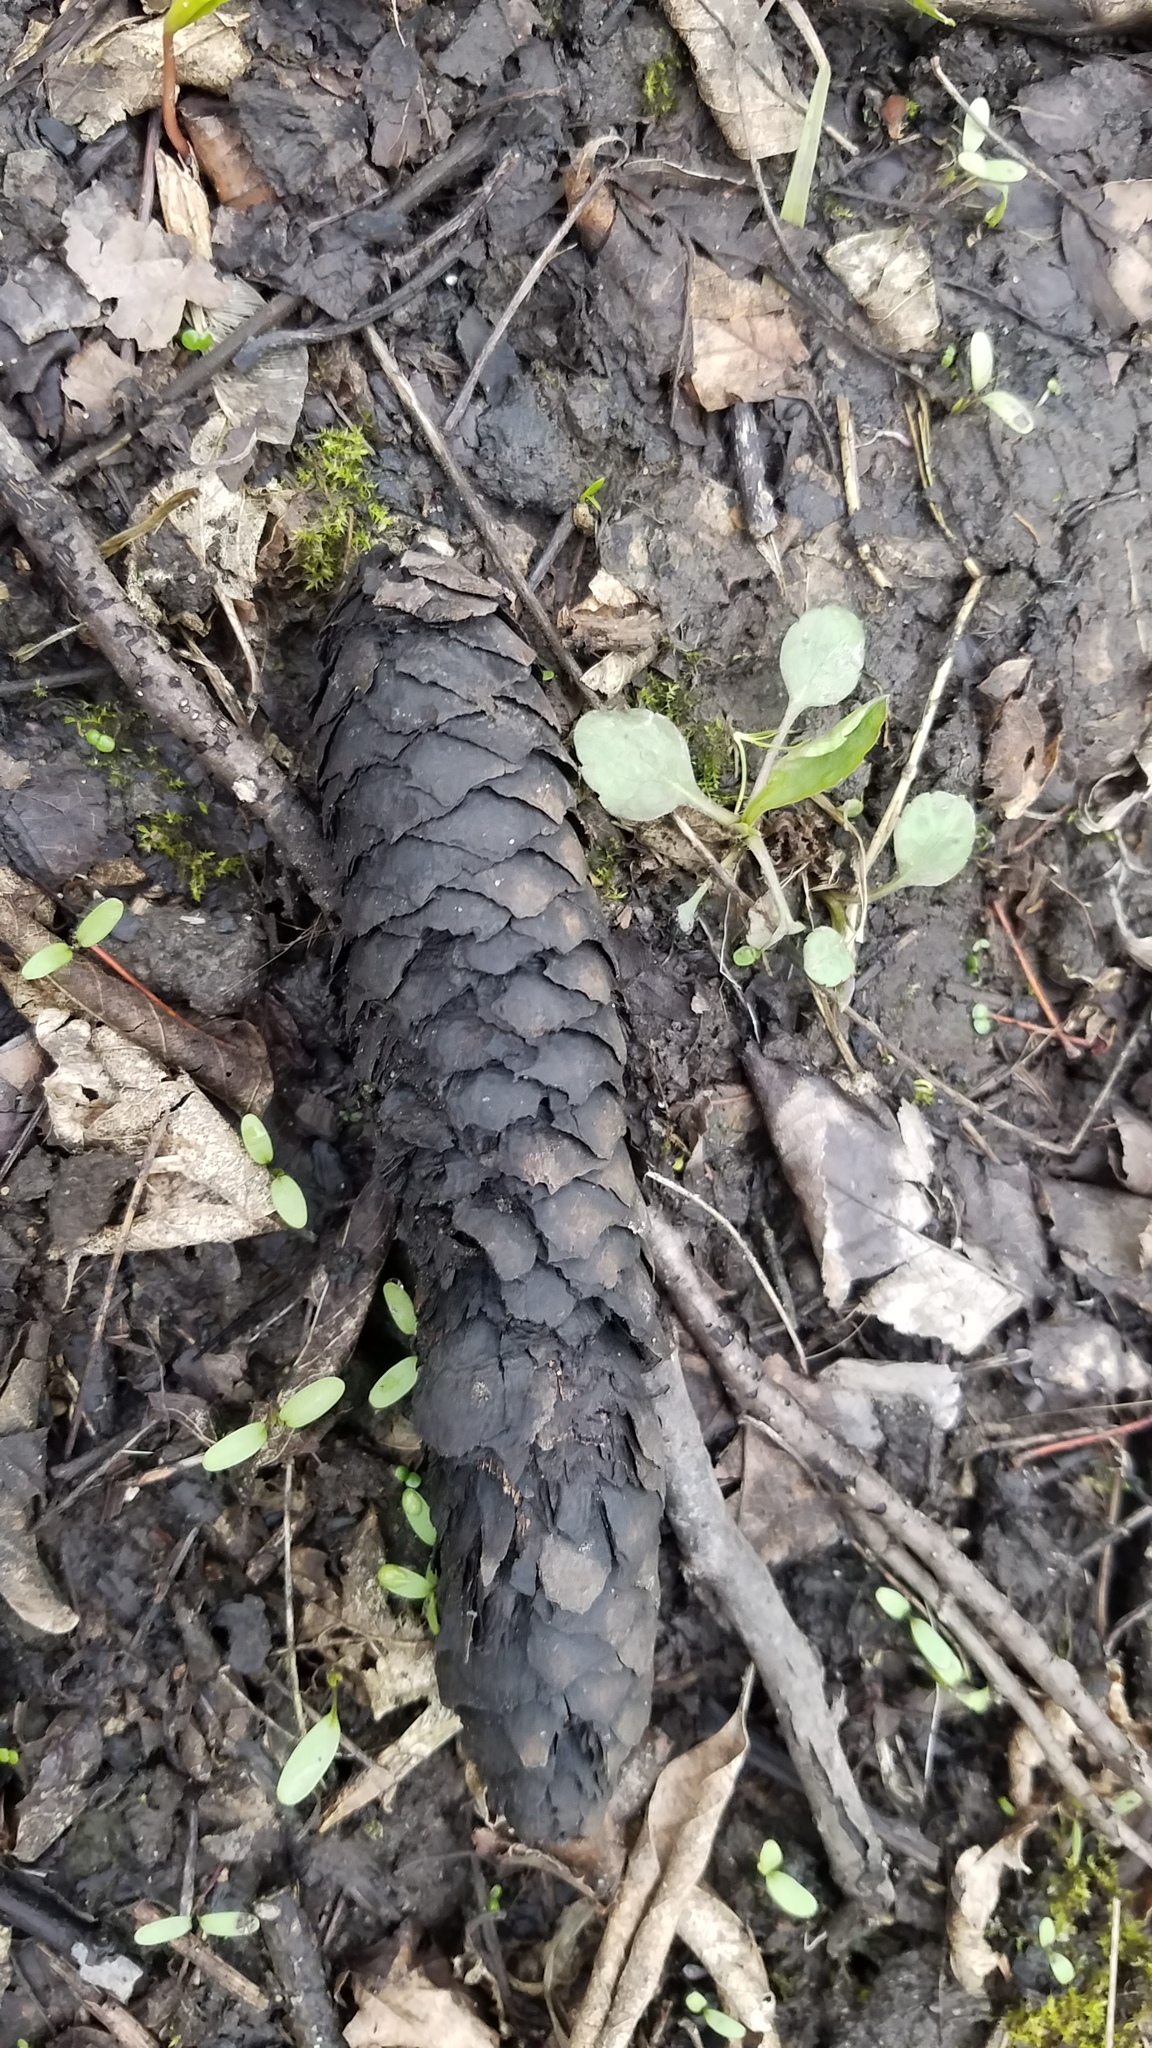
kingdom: Plantae
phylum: Tracheophyta
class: Pinopsida
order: Pinales
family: Pinaceae
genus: Picea
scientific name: Picea abies
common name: Norway spruce
